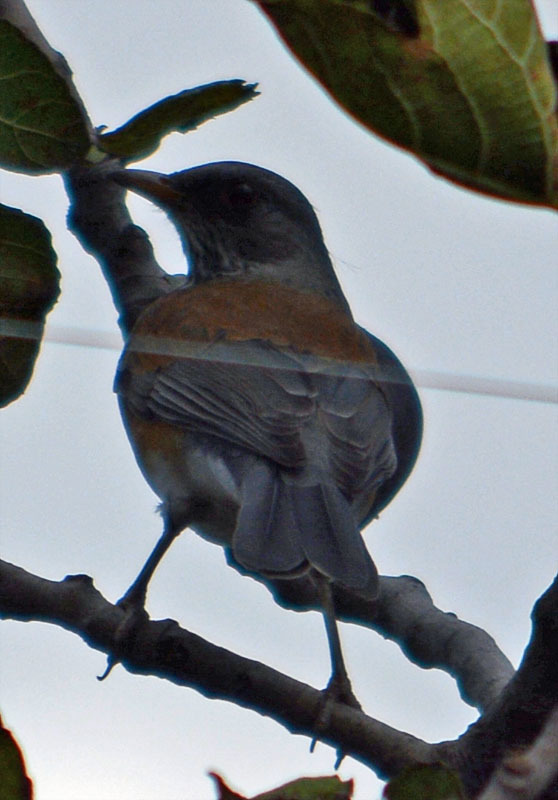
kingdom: Animalia
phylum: Chordata
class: Aves
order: Passeriformes
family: Turdidae
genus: Turdus
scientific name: Turdus rufopalliatus
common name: Rufous-backed robin
